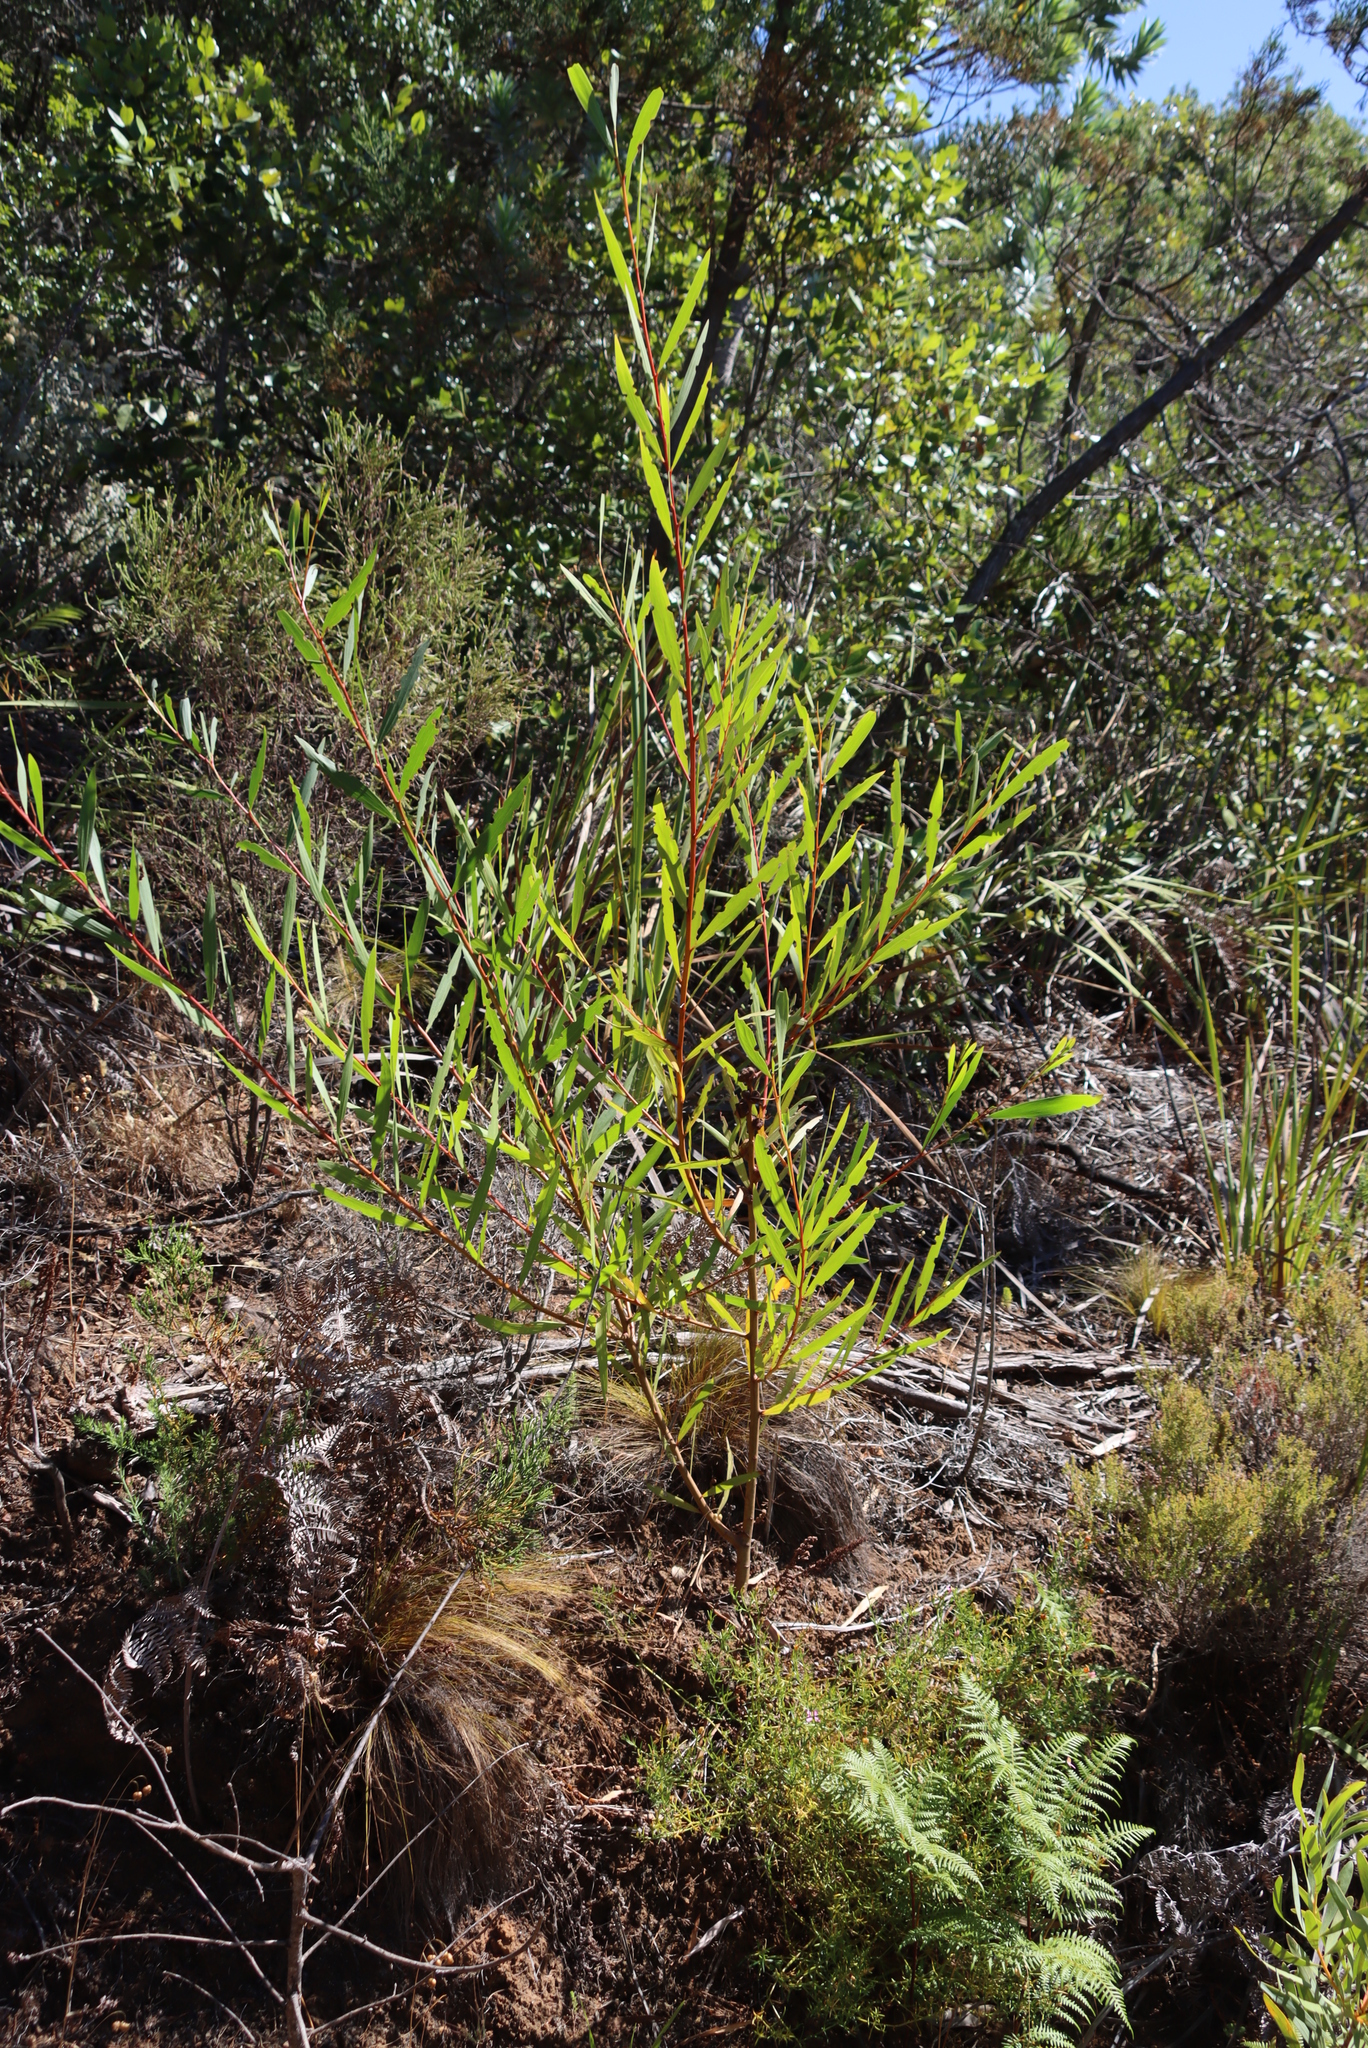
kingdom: Plantae
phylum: Tracheophyta
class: Magnoliopsida
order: Fabales
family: Fabaceae
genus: Acacia
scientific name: Acacia longifolia
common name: Sydney golden wattle
